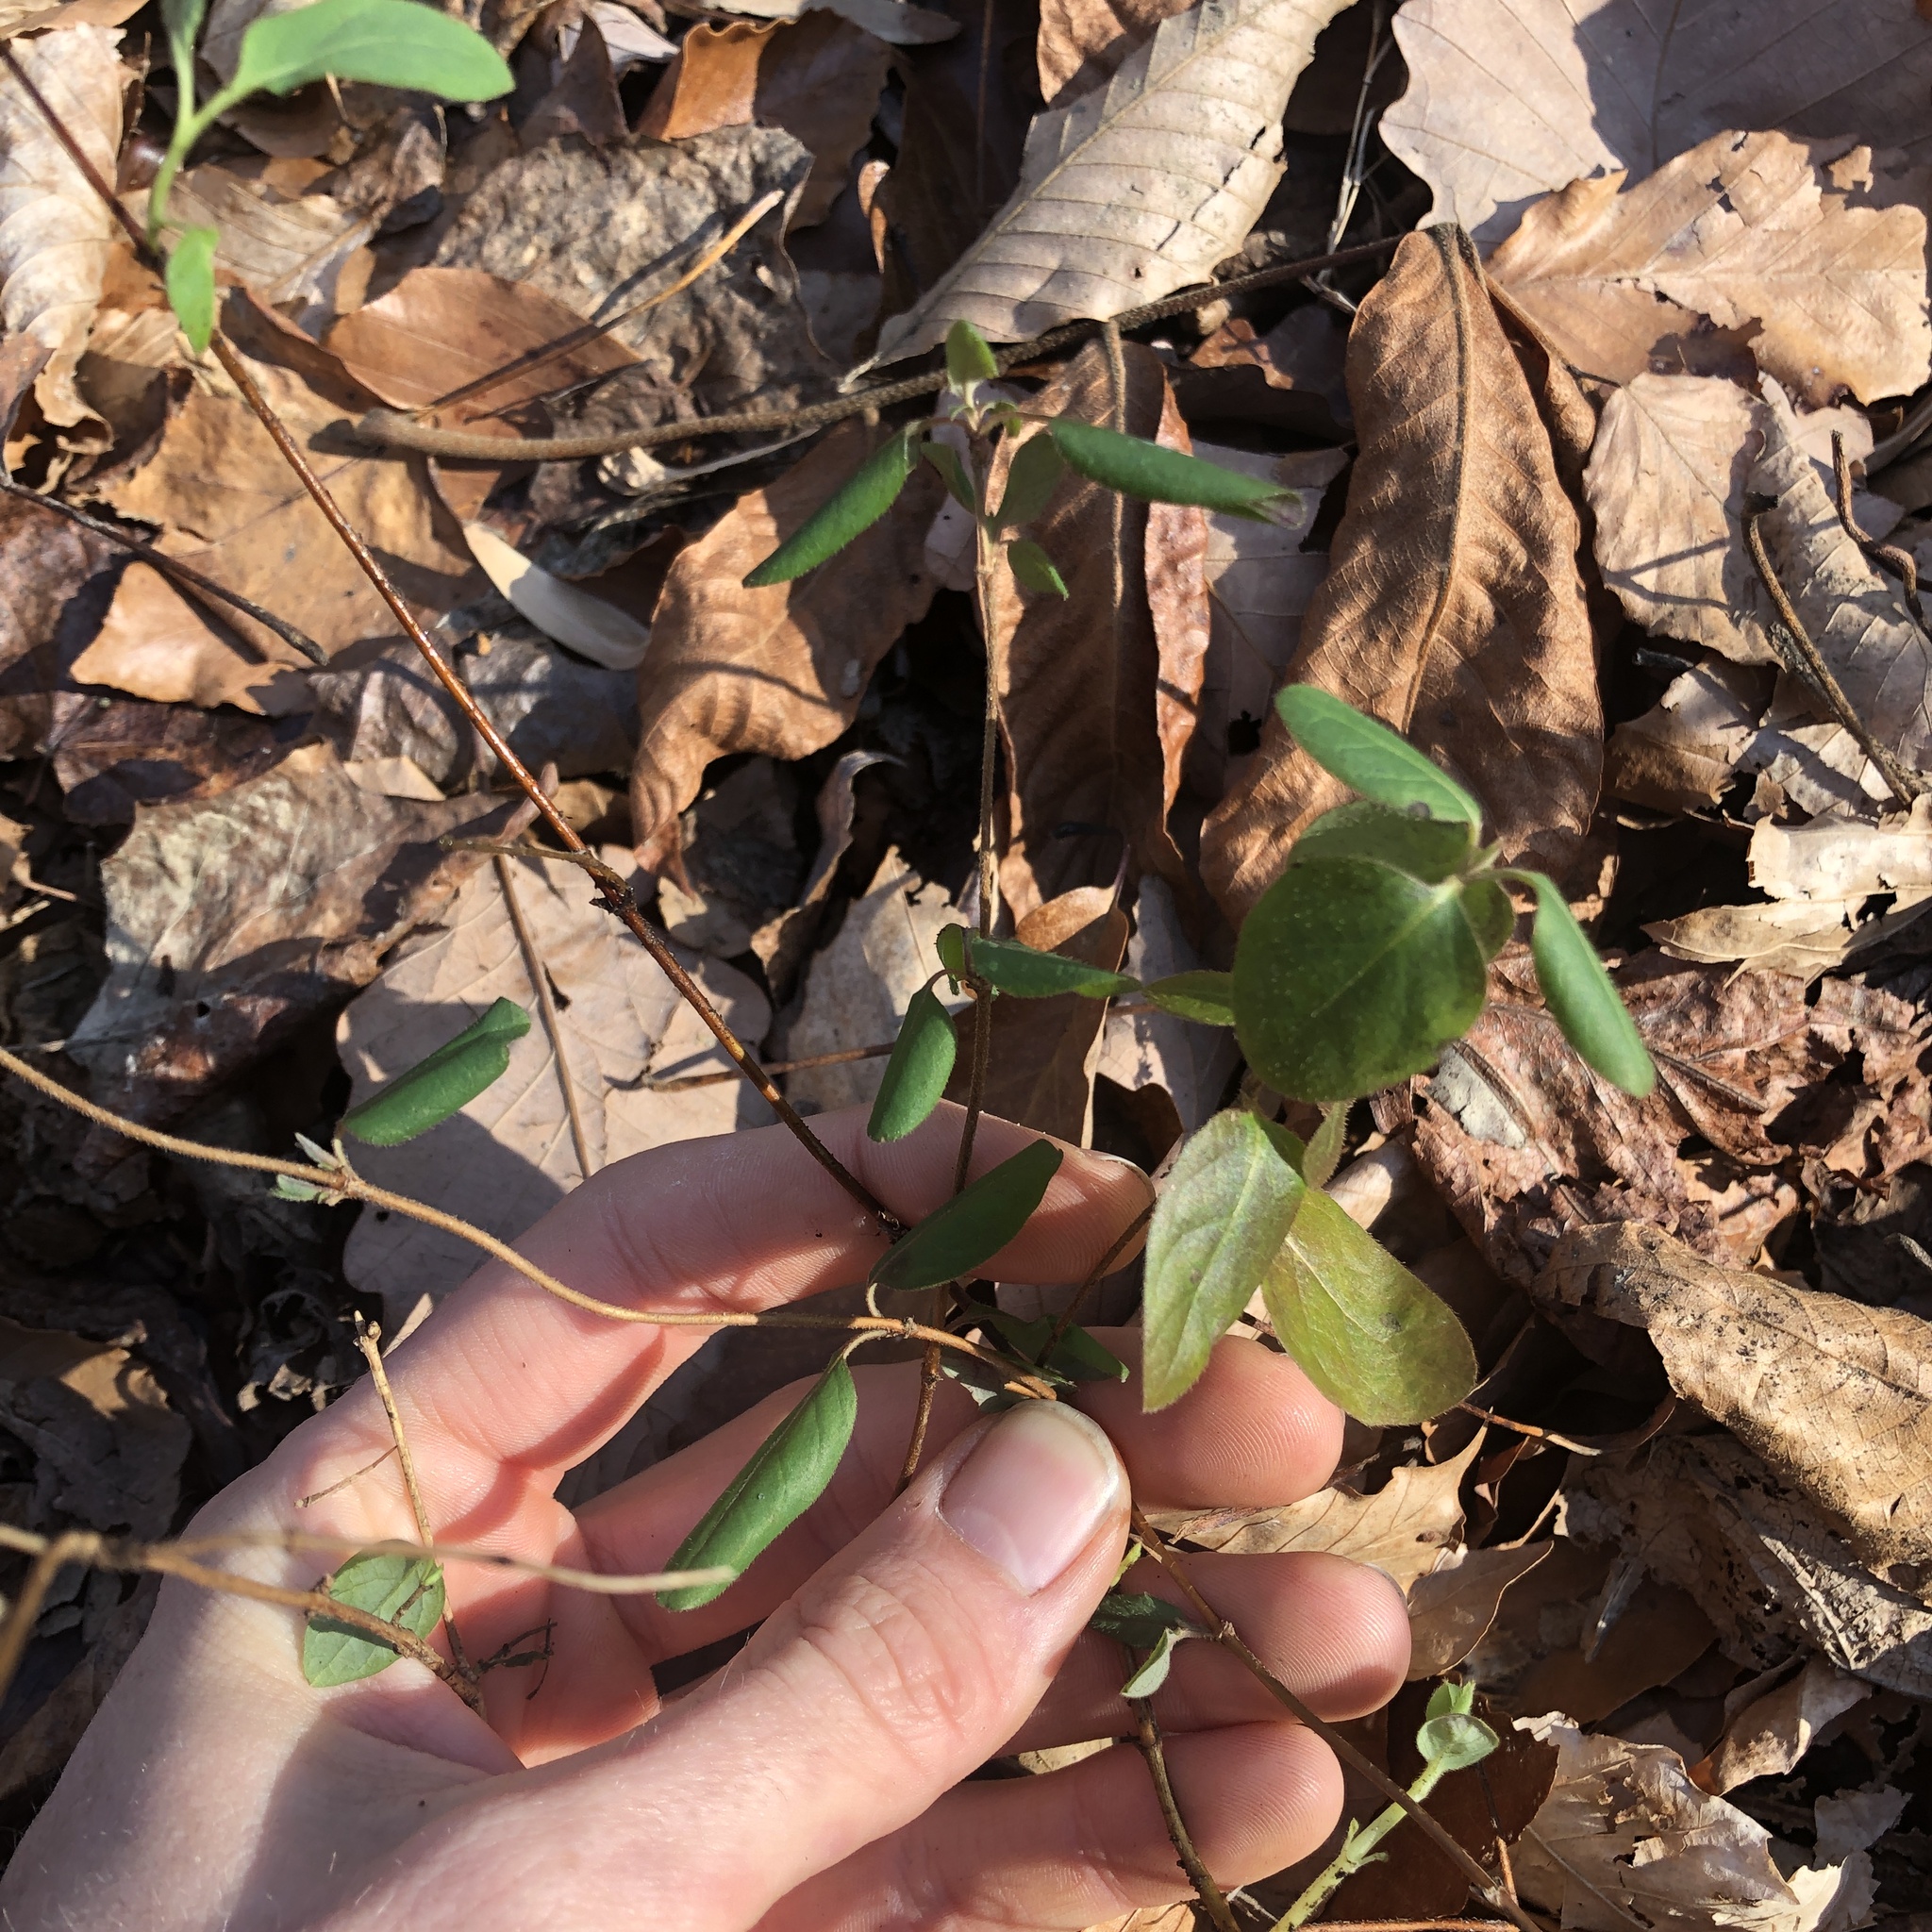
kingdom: Plantae
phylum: Tracheophyta
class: Magnoliopsida
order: Dipsacales
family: Caprifoliaceae
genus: Lonicera
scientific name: Lonicera japonica
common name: Japanese honeysuckle
